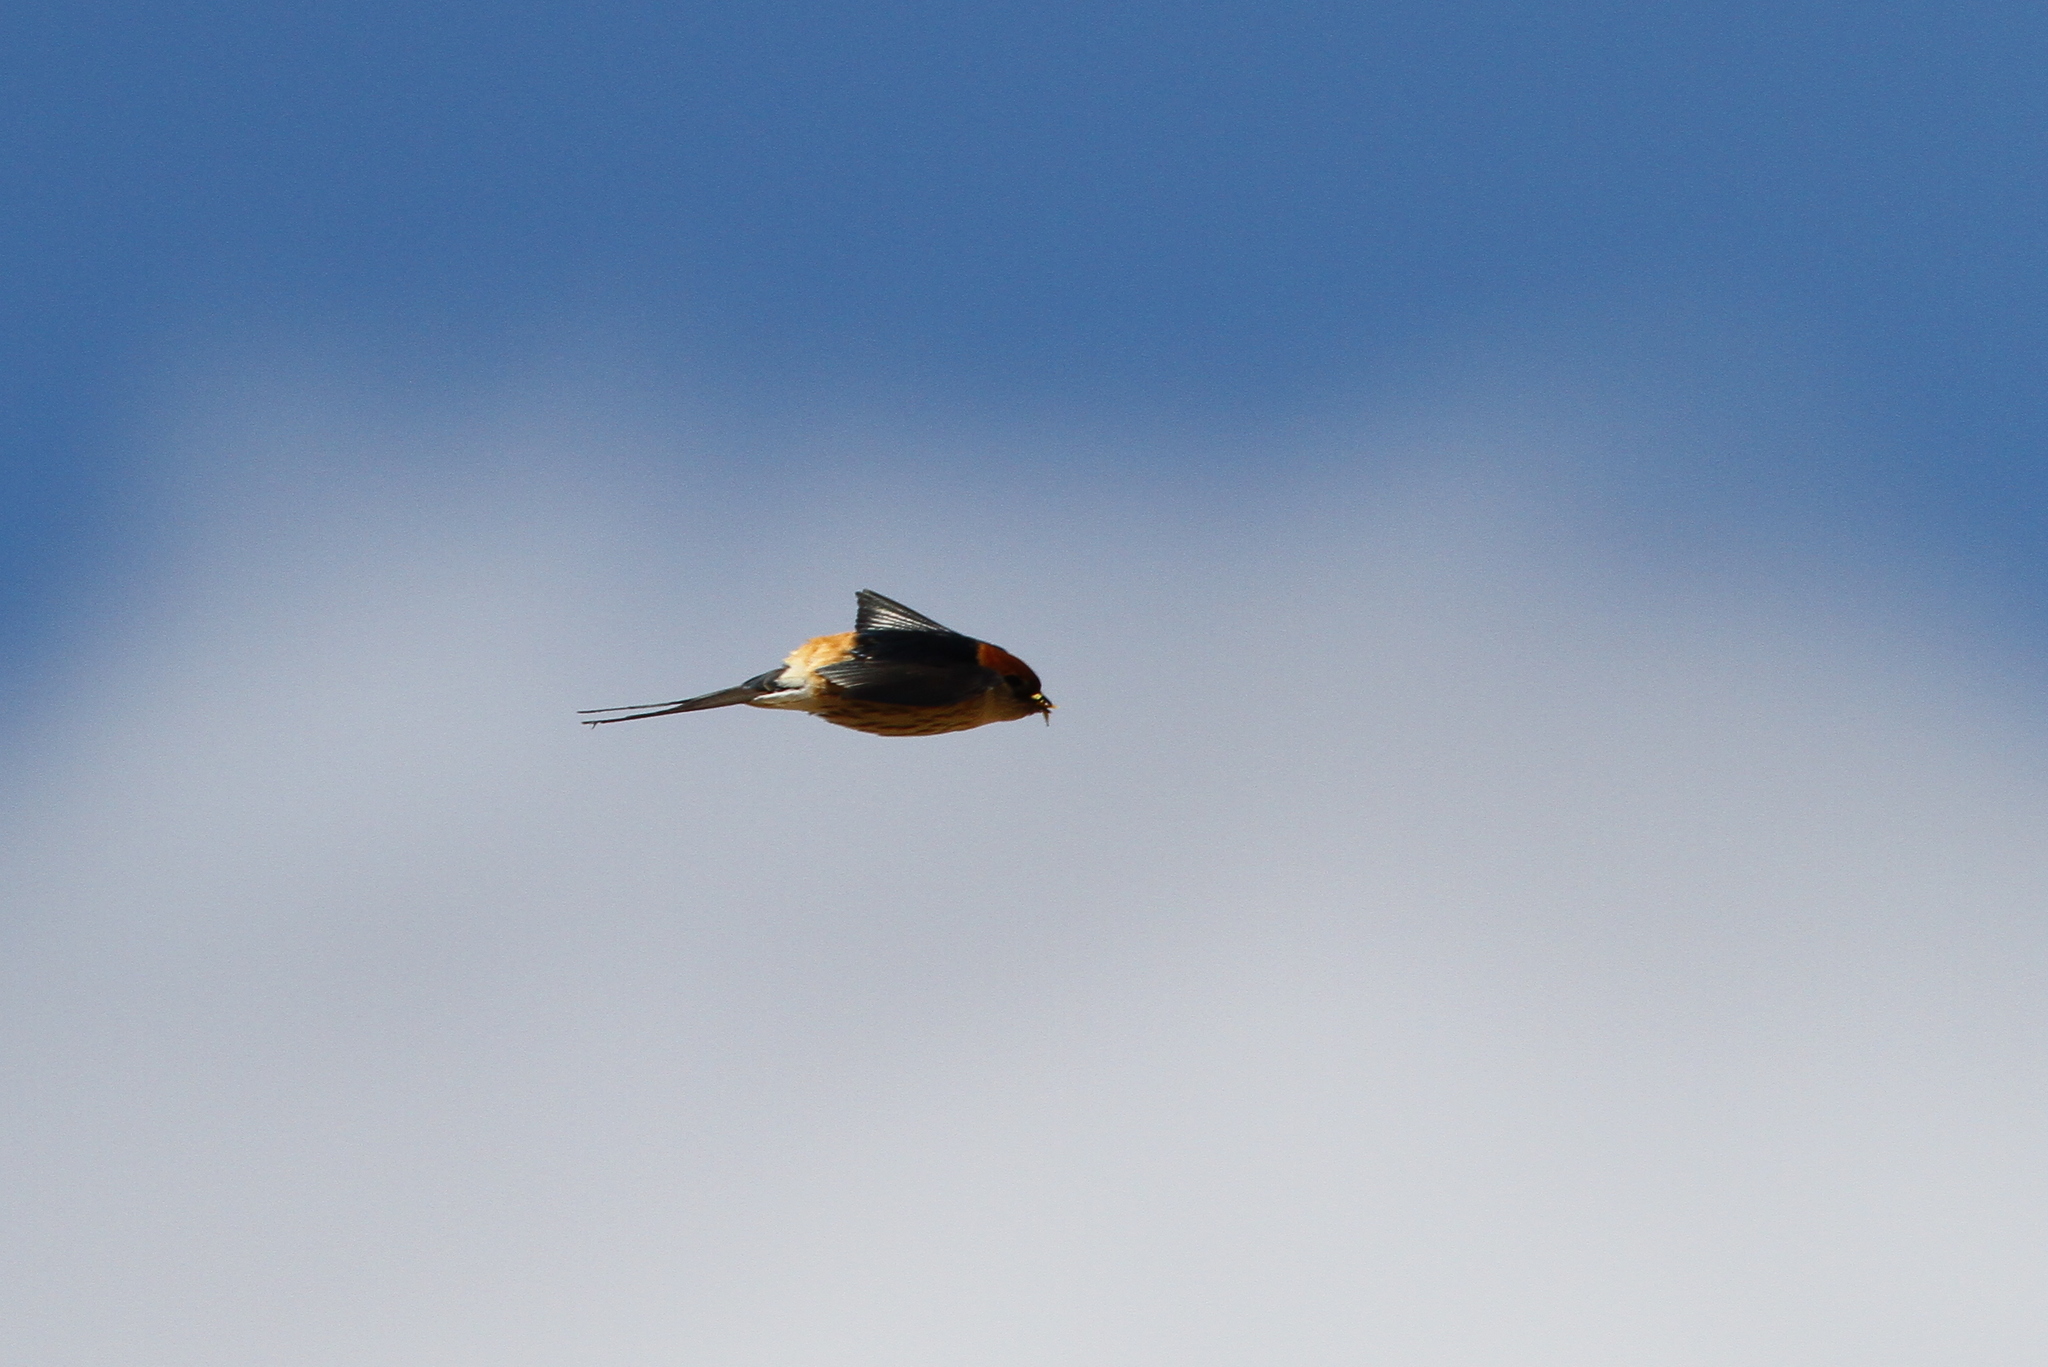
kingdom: Animalia
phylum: Chordata
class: Aves
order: Passeriformes
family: Hirundinidae
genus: Cecropis
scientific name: Cecropis cucullata
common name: Greater striped-swallow
